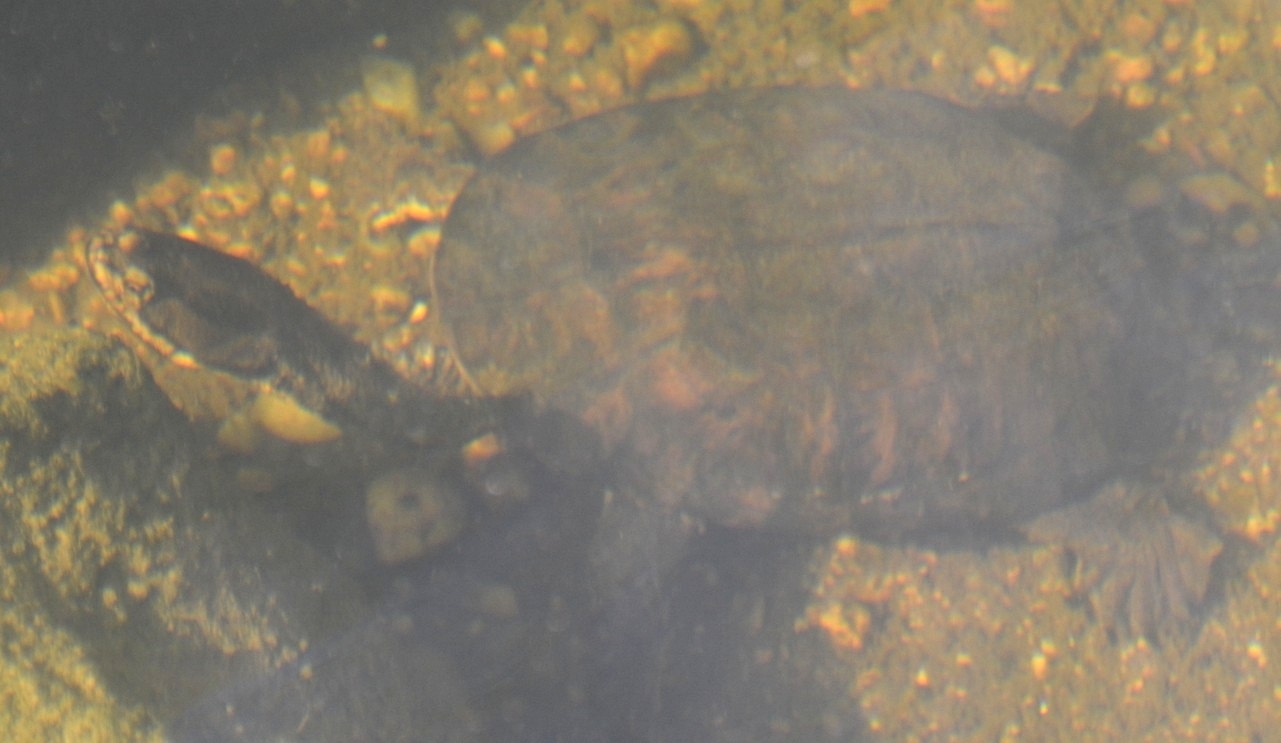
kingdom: Animalia
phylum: Chordata
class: Testudines
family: Chelidae
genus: Hydromedusa
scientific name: Hydromedusa tectifera
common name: Argentine snake-necked turtle
